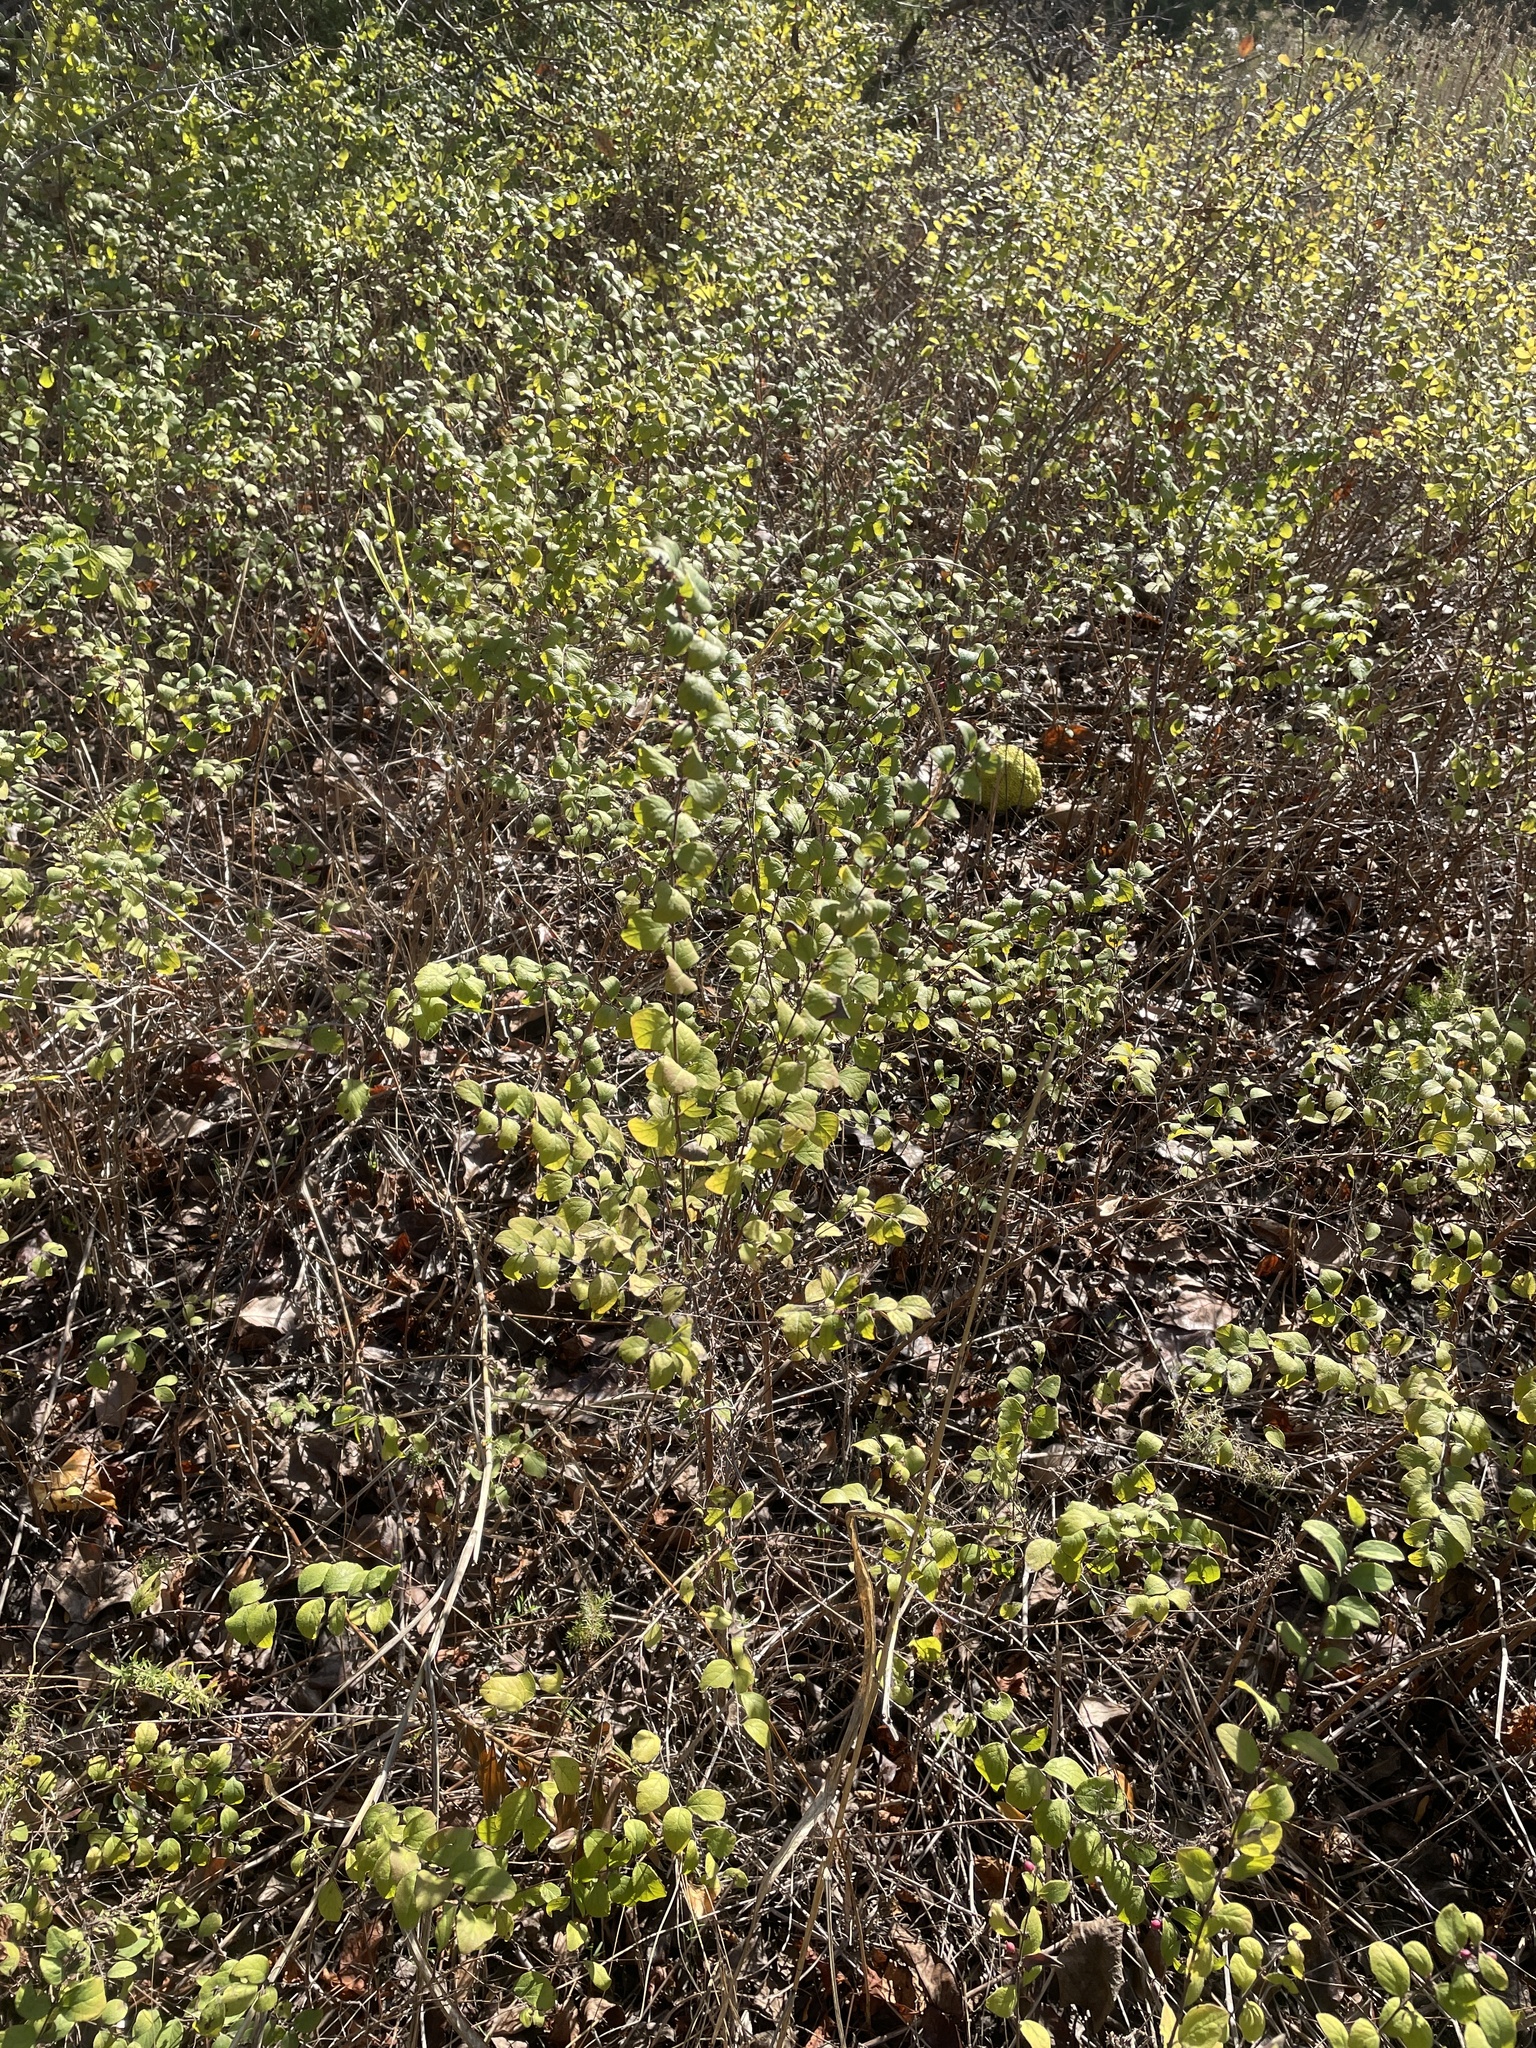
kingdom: Plantae
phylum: Tracheophyta
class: Magnoliopsida
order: Dipsacales
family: Caprifoliaceae
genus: Symphoricarpos
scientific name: Symphoricarpos orbiculatus
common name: Coralberry
